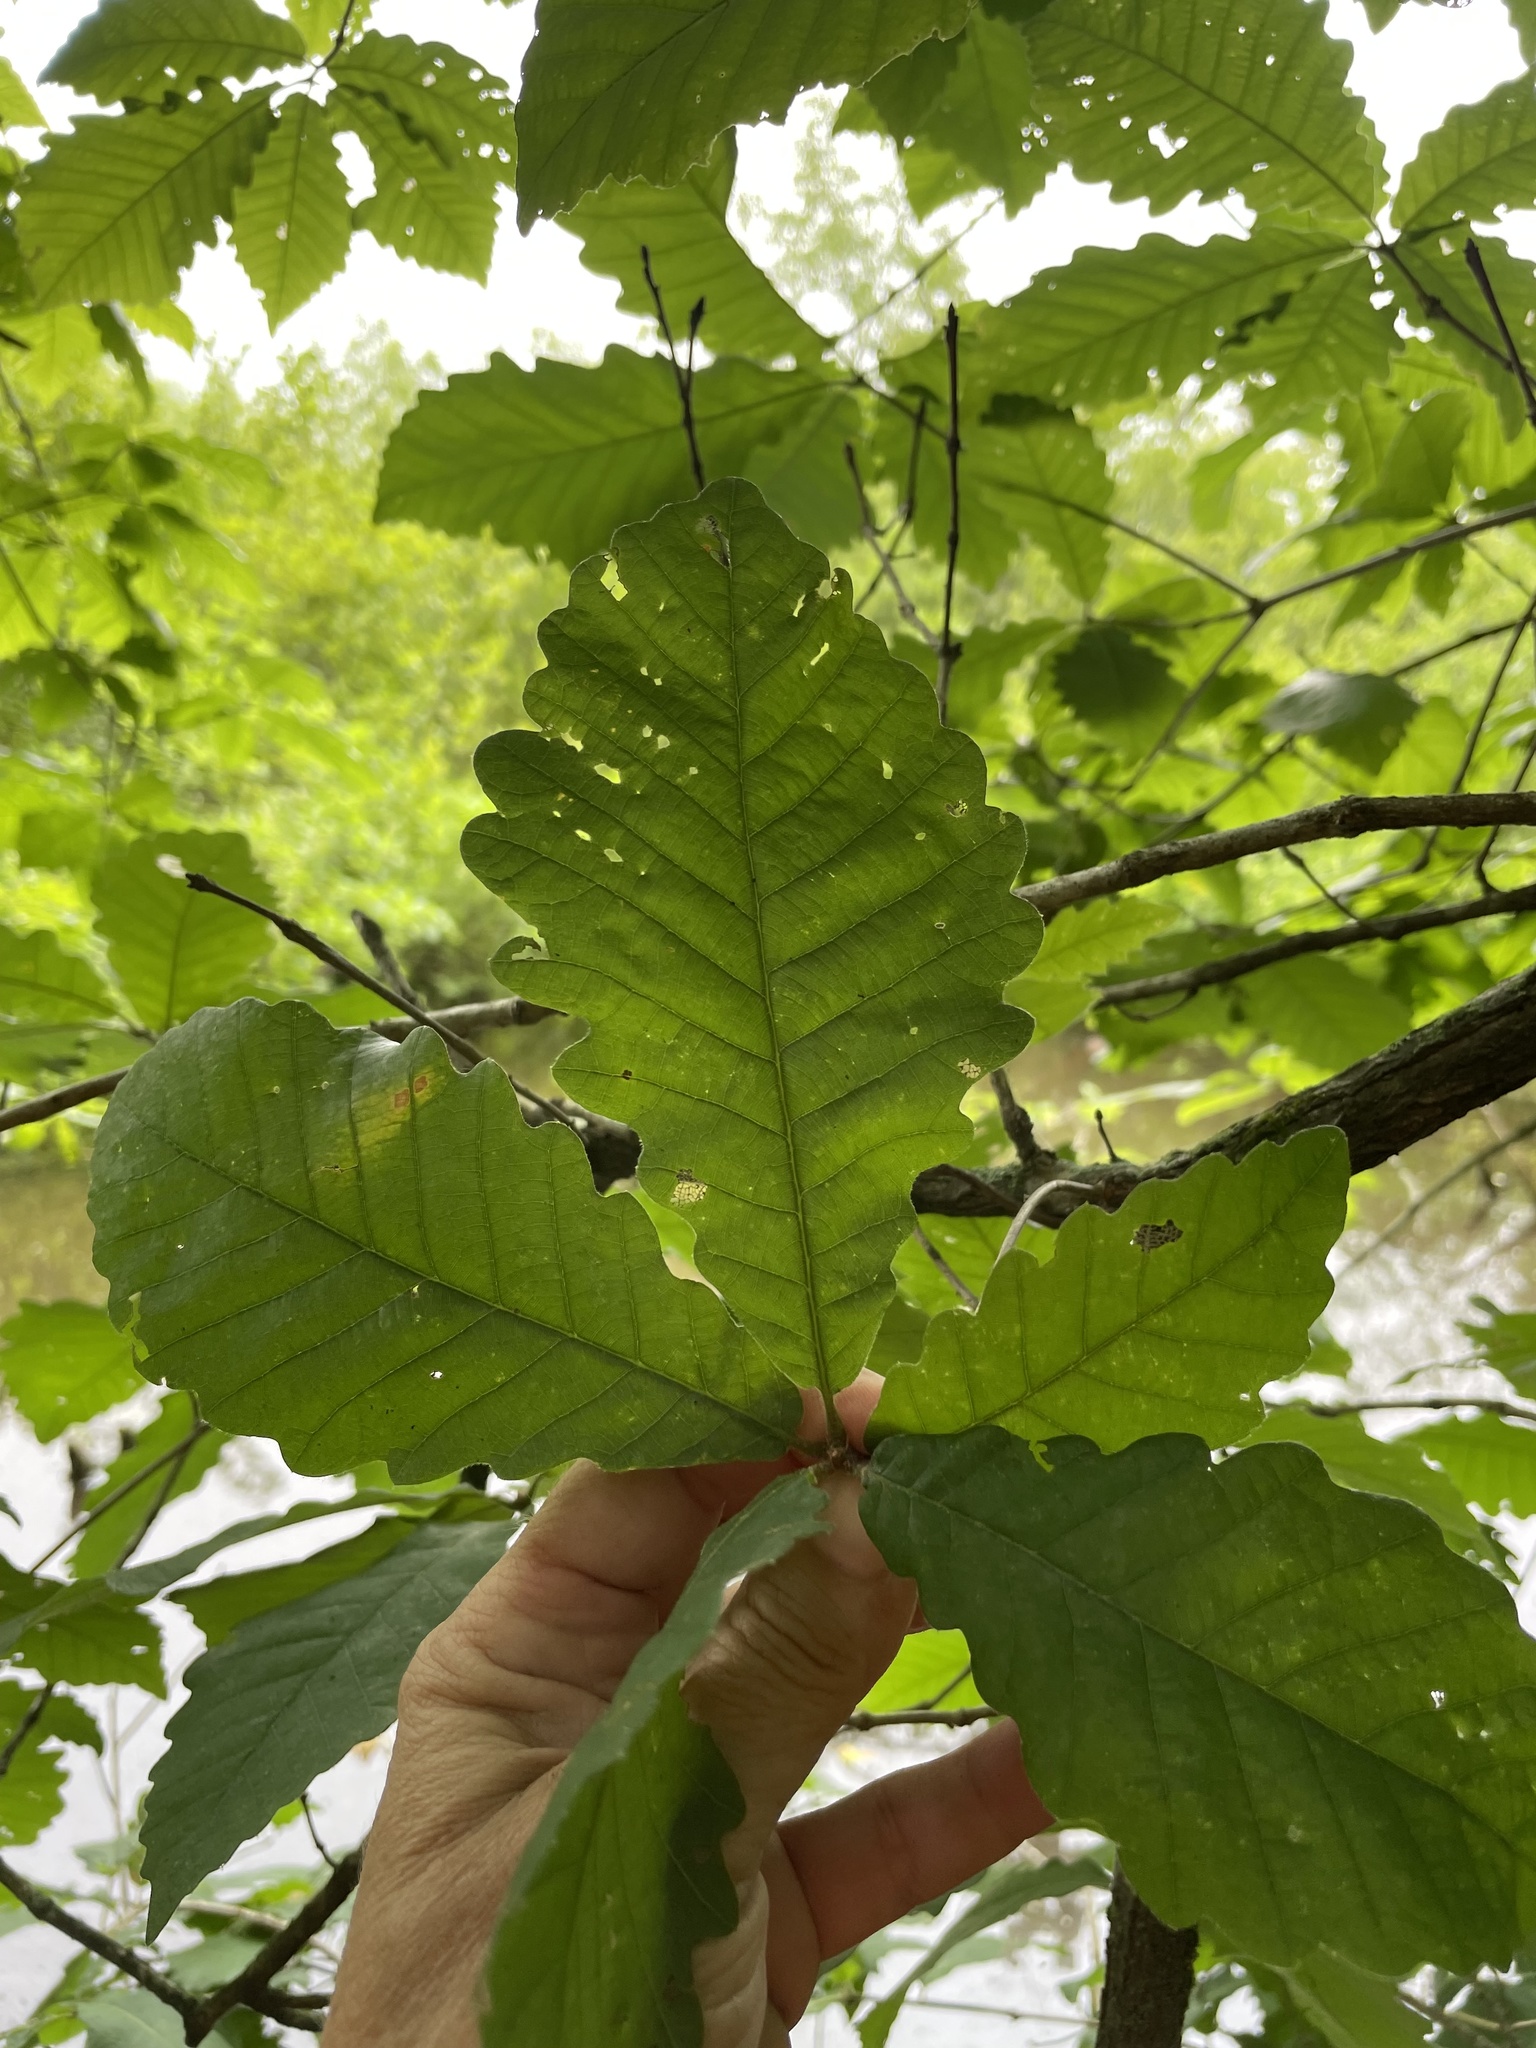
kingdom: Plantae
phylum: Tracheophyta
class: Magnoliopsida
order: Fagales
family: Fagaceae
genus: Quercus
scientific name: Quercus michauxii
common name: Swamp chestnut oak
